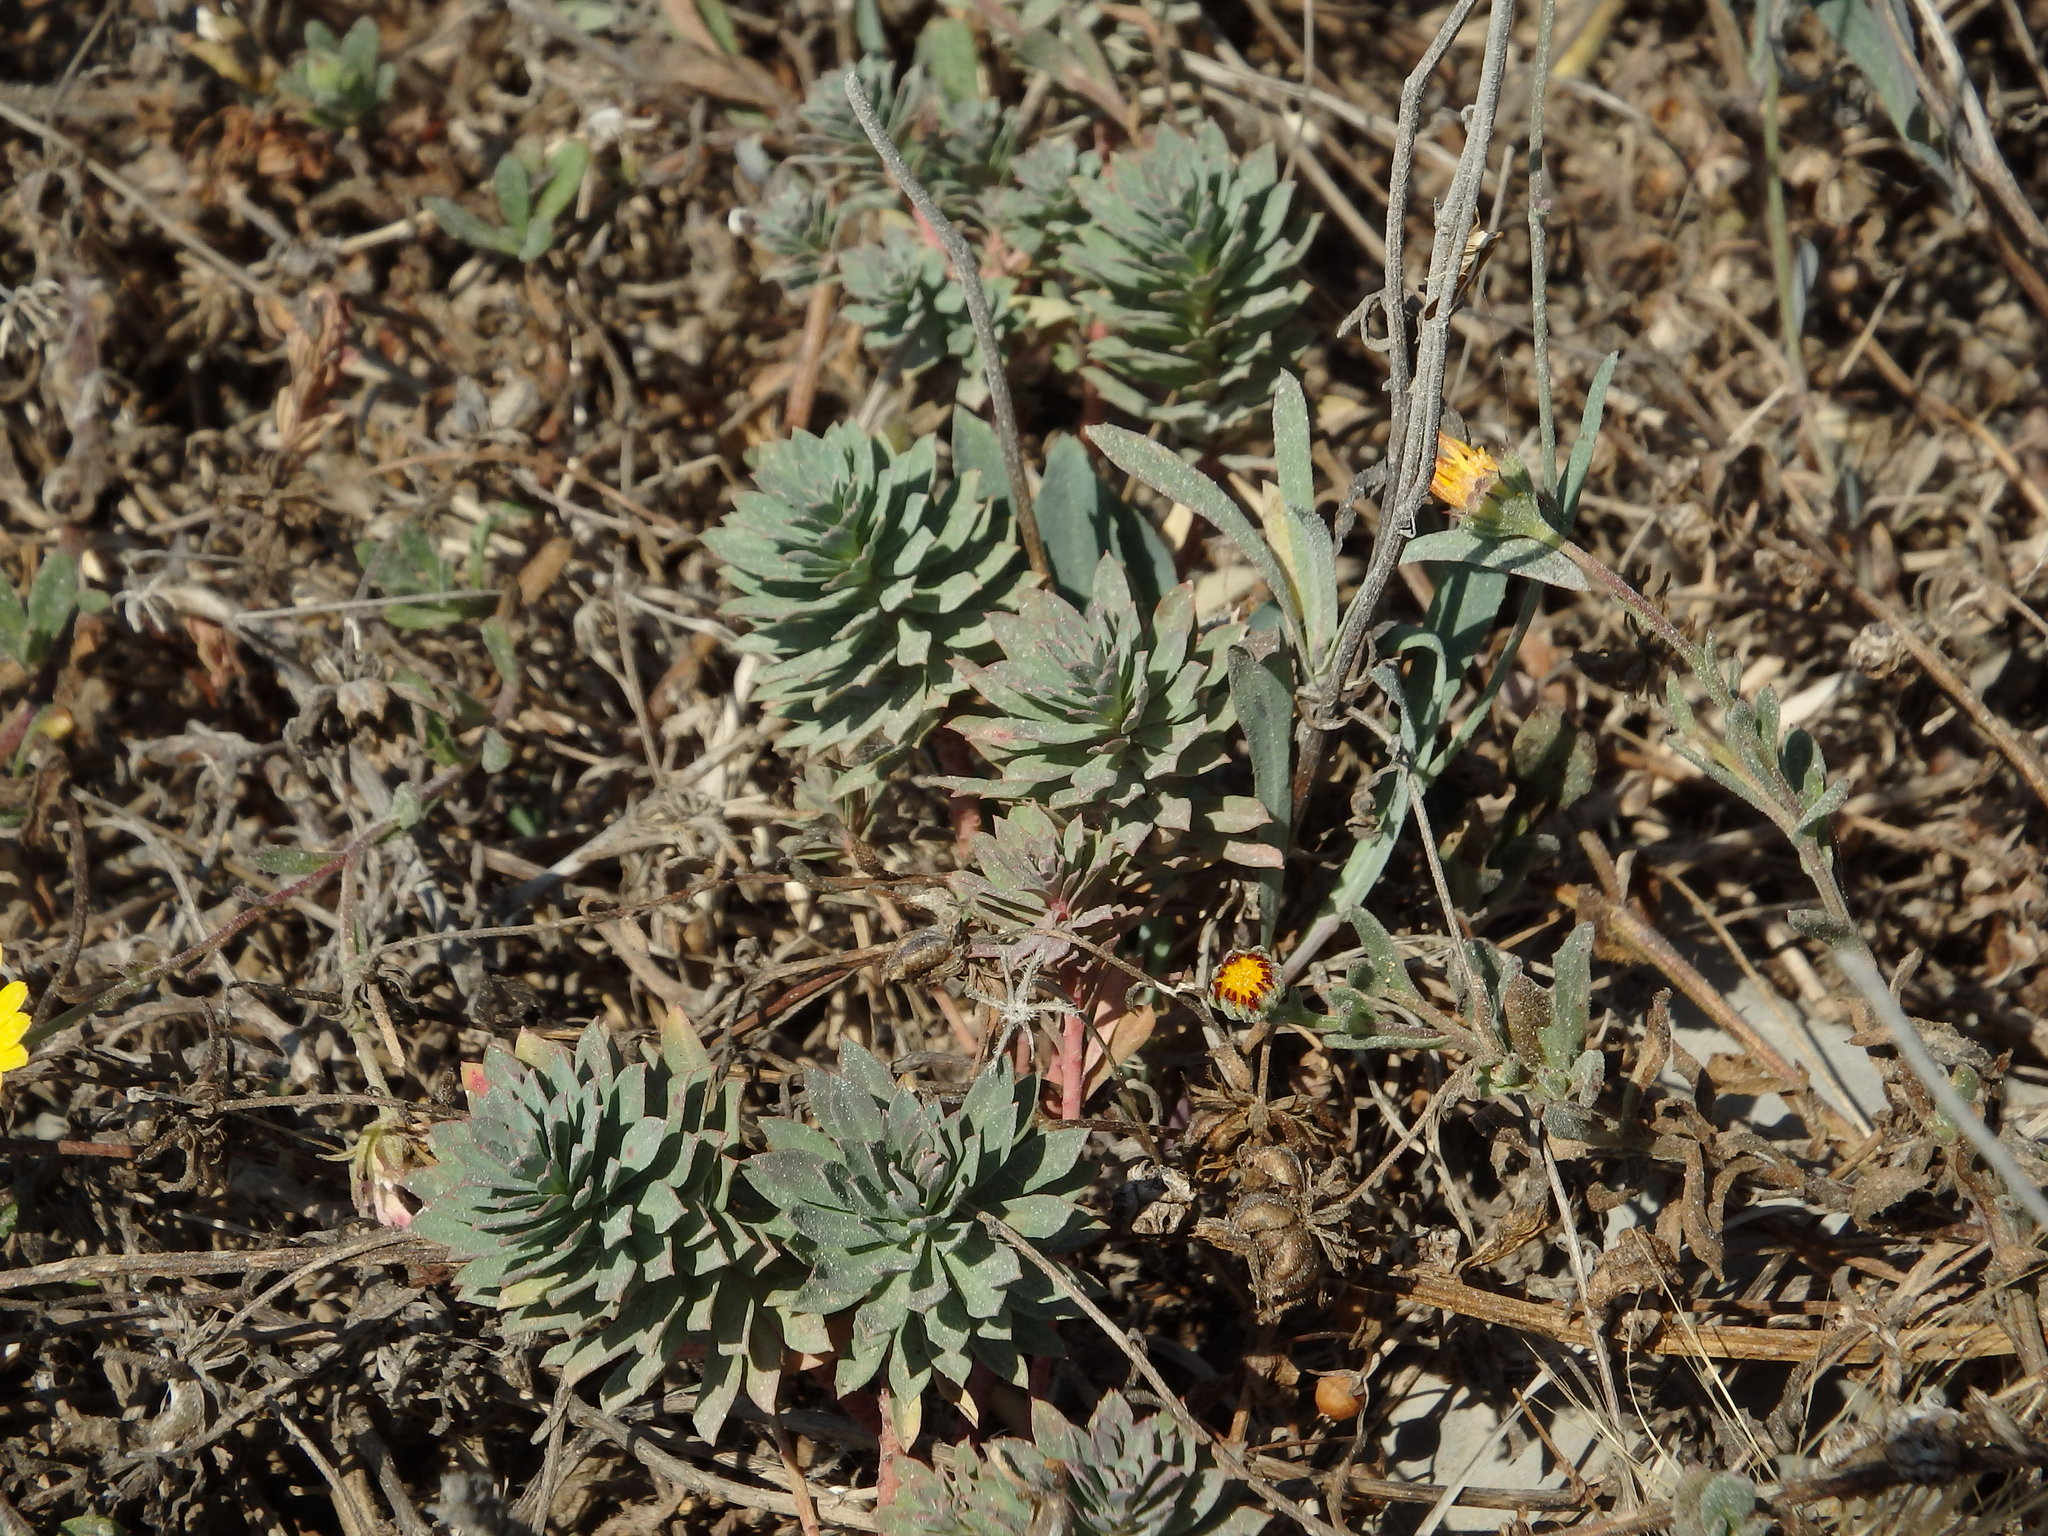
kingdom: Plantae
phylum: Tracheophyta
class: Magnoliopsida
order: Malpighiales
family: Euphorbiaceae
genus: Euphorbia
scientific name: Euphorbia portlandica
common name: Portland spurge
